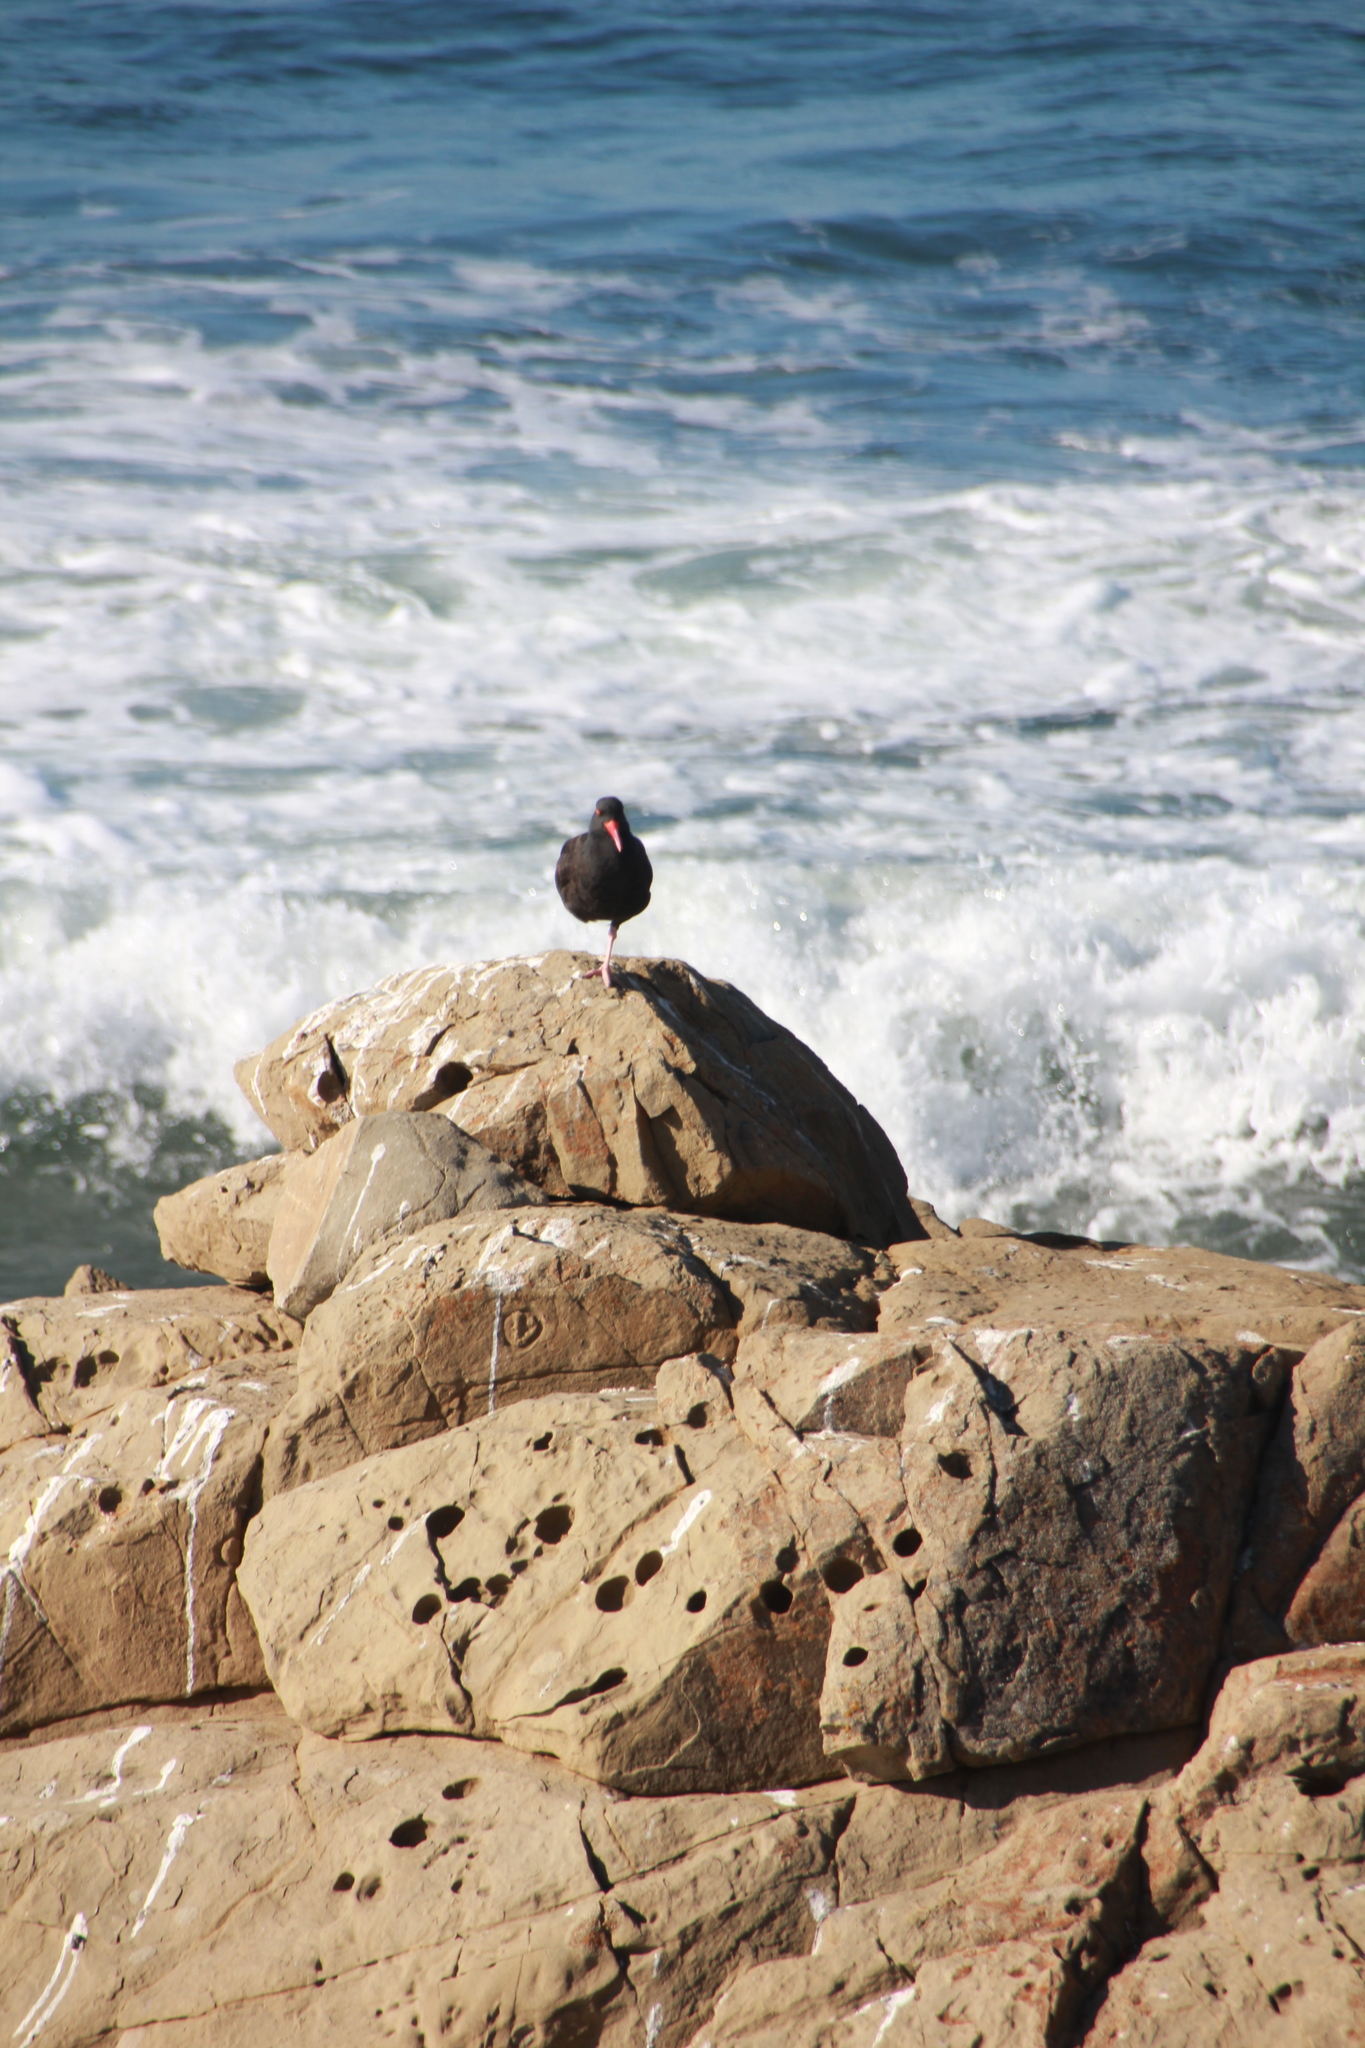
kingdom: Animalia
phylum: Chordata
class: Aves
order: Charadriiformes
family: Haematopodidae
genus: Haematopus
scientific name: Haematopus bachmani
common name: Black oystercatcher
